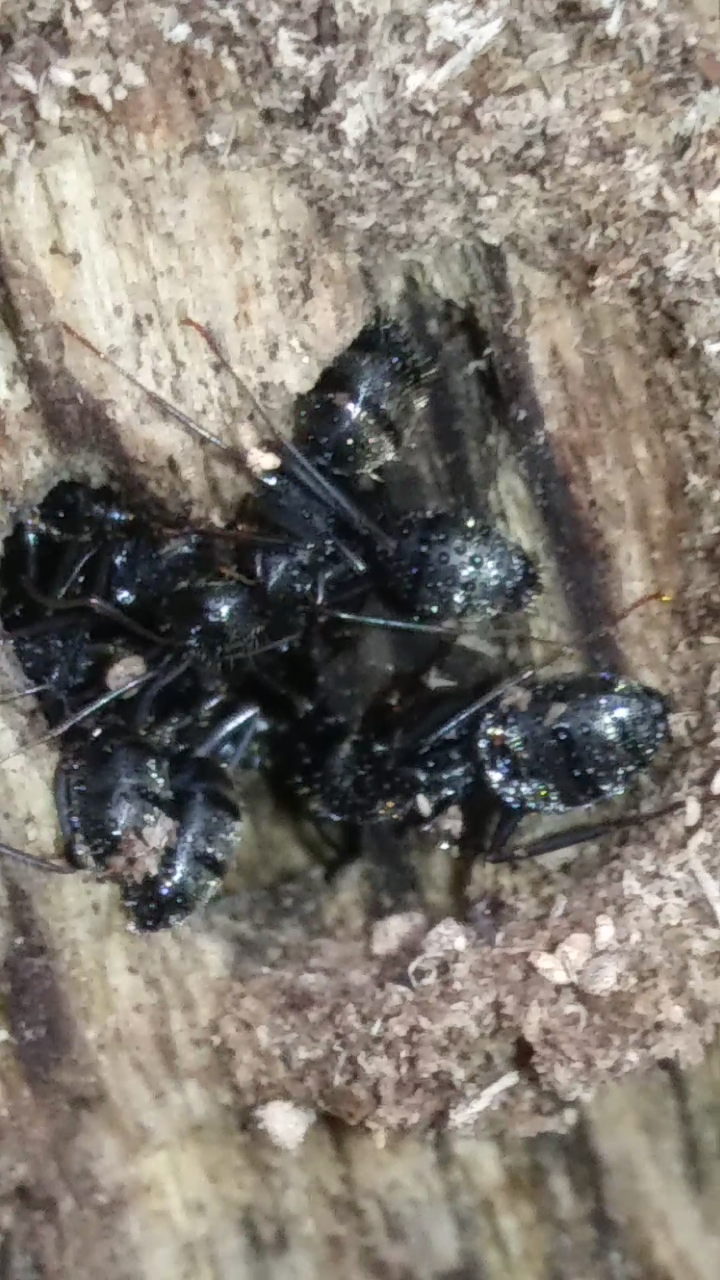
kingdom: Animalia
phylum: Arthropoda
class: Insecta
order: Hymenoptera
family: Formicidae
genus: Camponotus
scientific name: Camponotus pennsylvanicus
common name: Black carpenter ant
